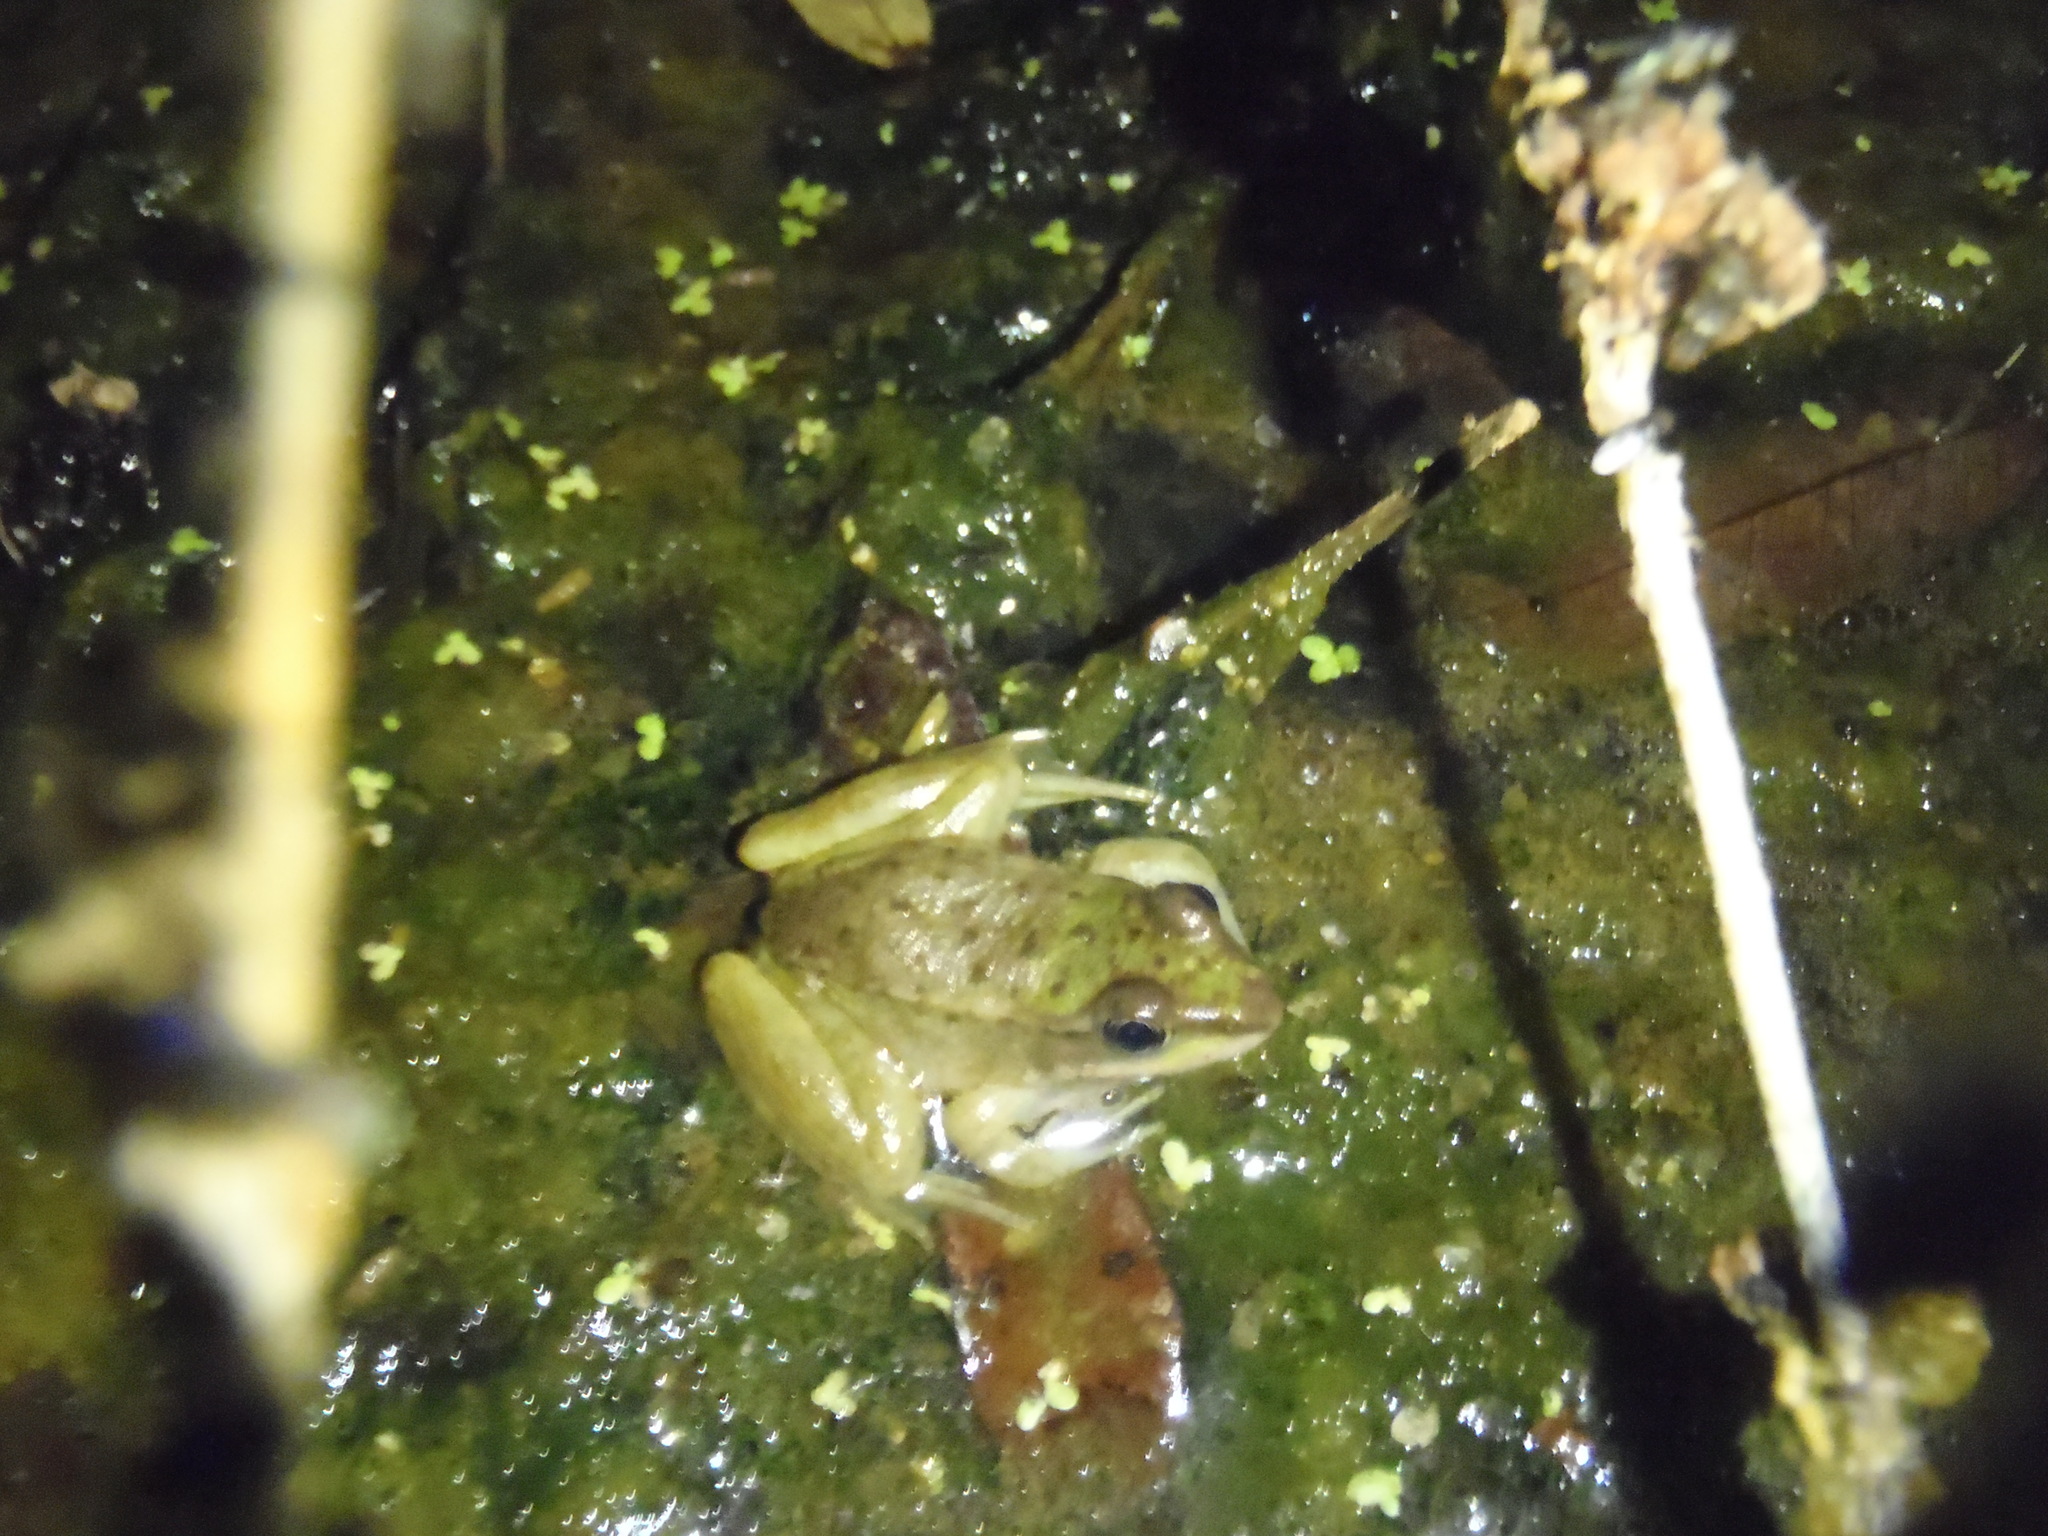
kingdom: Animalia
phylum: Chordata
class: Amphibia
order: Anura
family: Ranidae
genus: Lithobates
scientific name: Lithobates vaillanti
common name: Vaillant's frog
